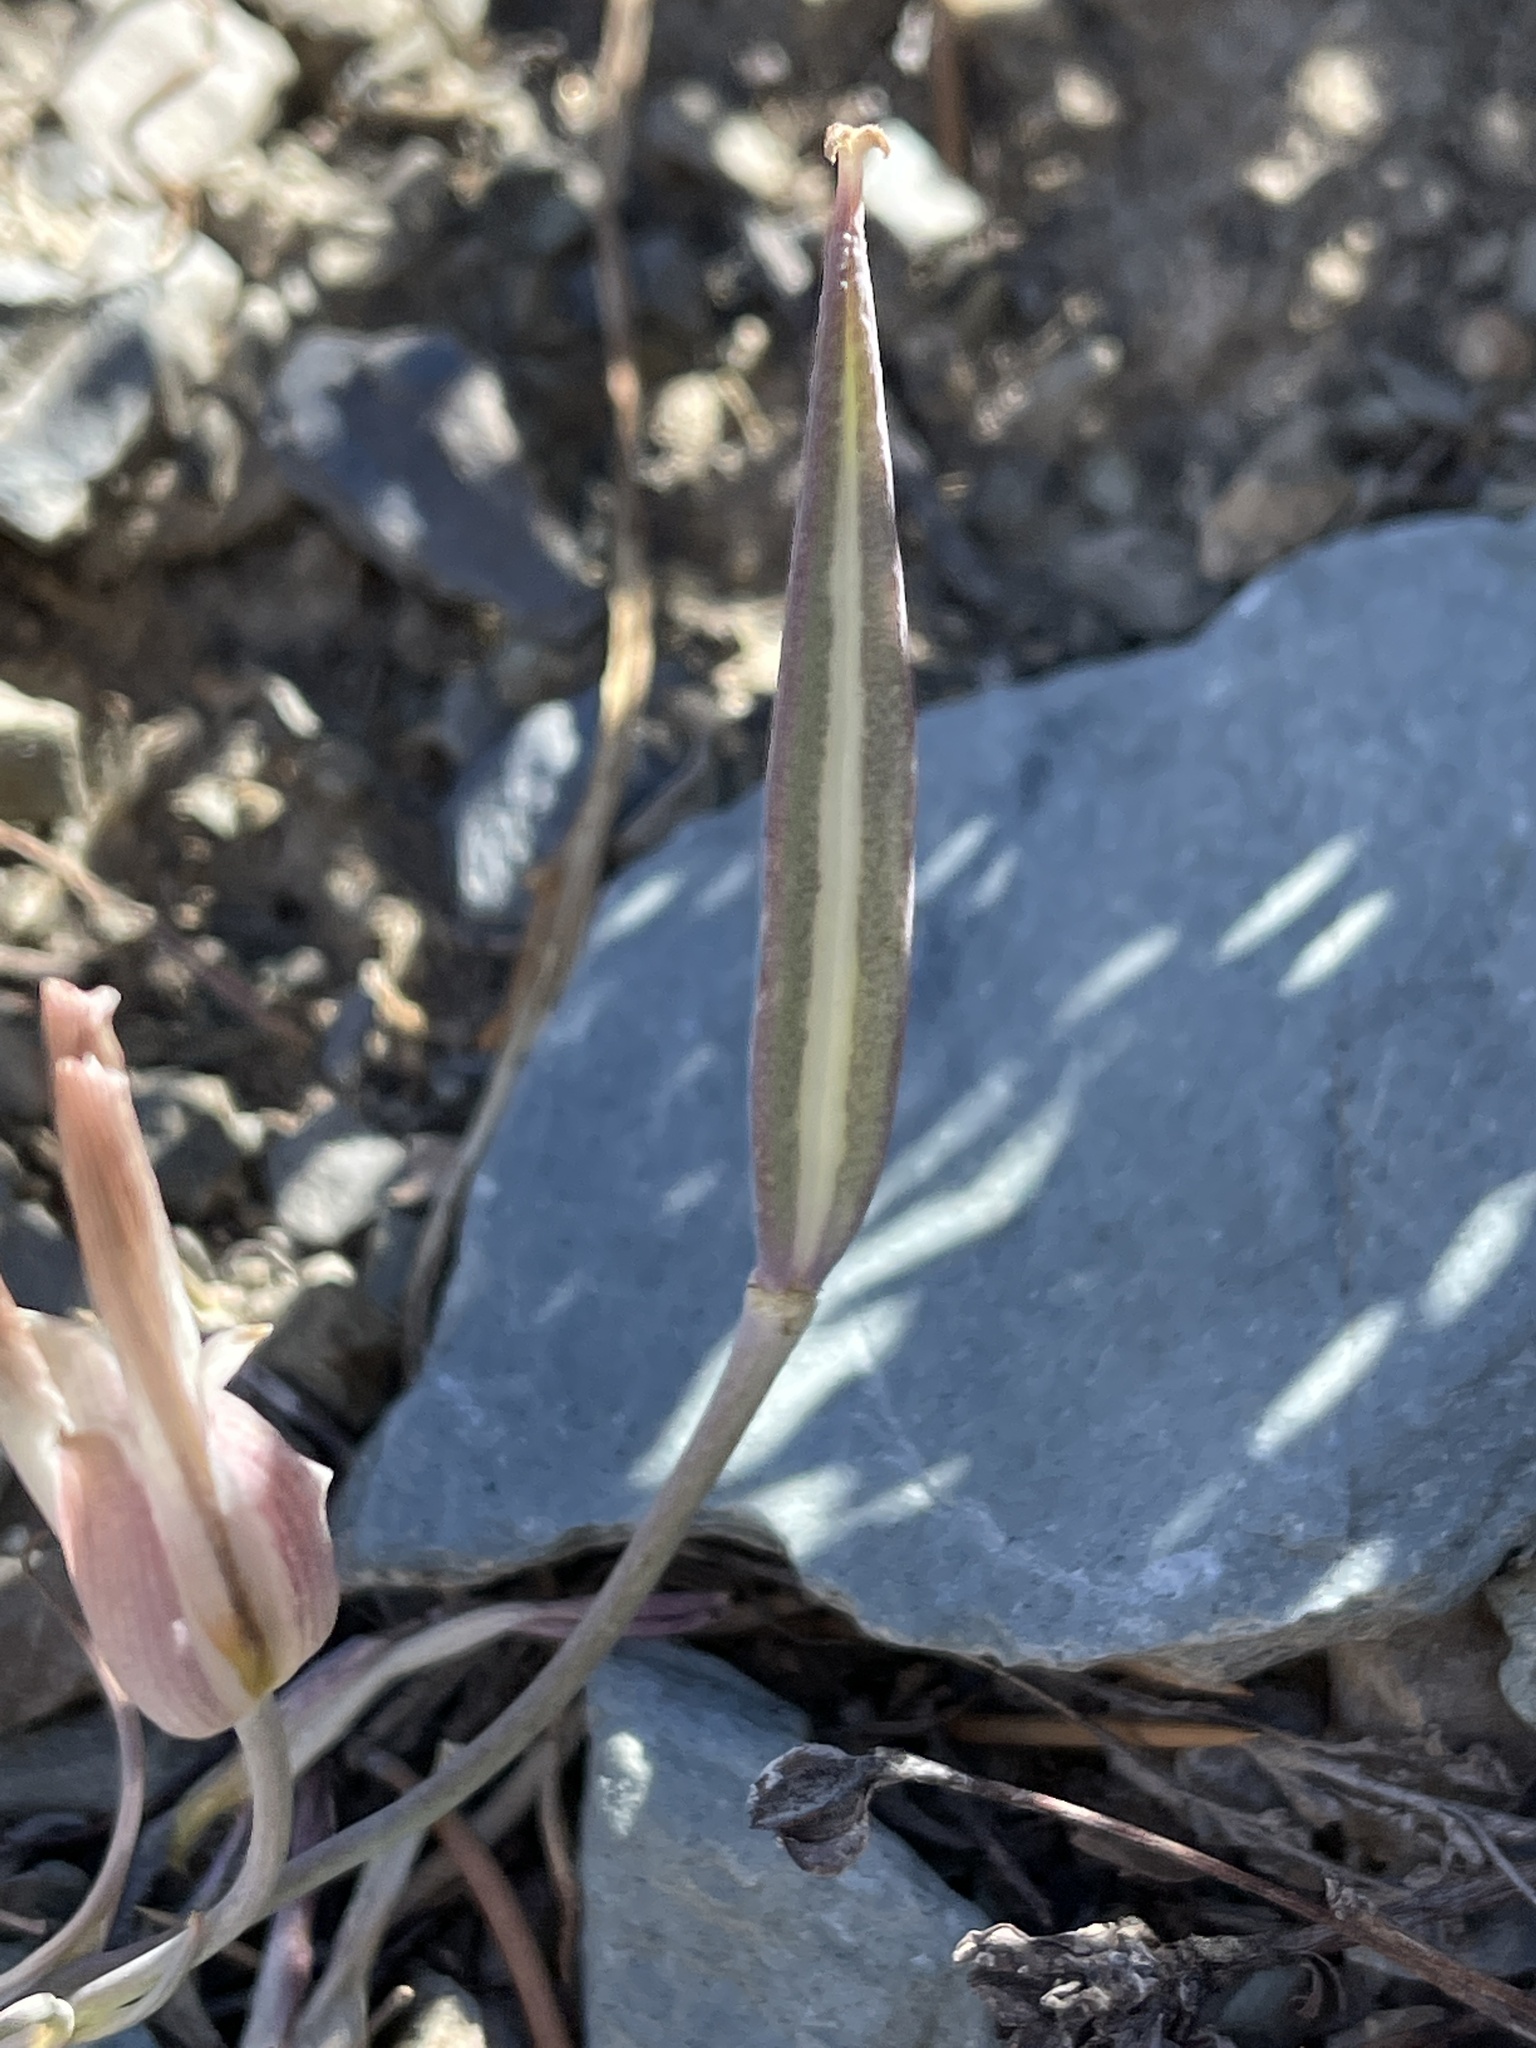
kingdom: Plantae
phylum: Tracheophyta
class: Liliopsida
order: Liliales
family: Liliaceae
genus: Calochortus
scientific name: Calochortus panamintensis
